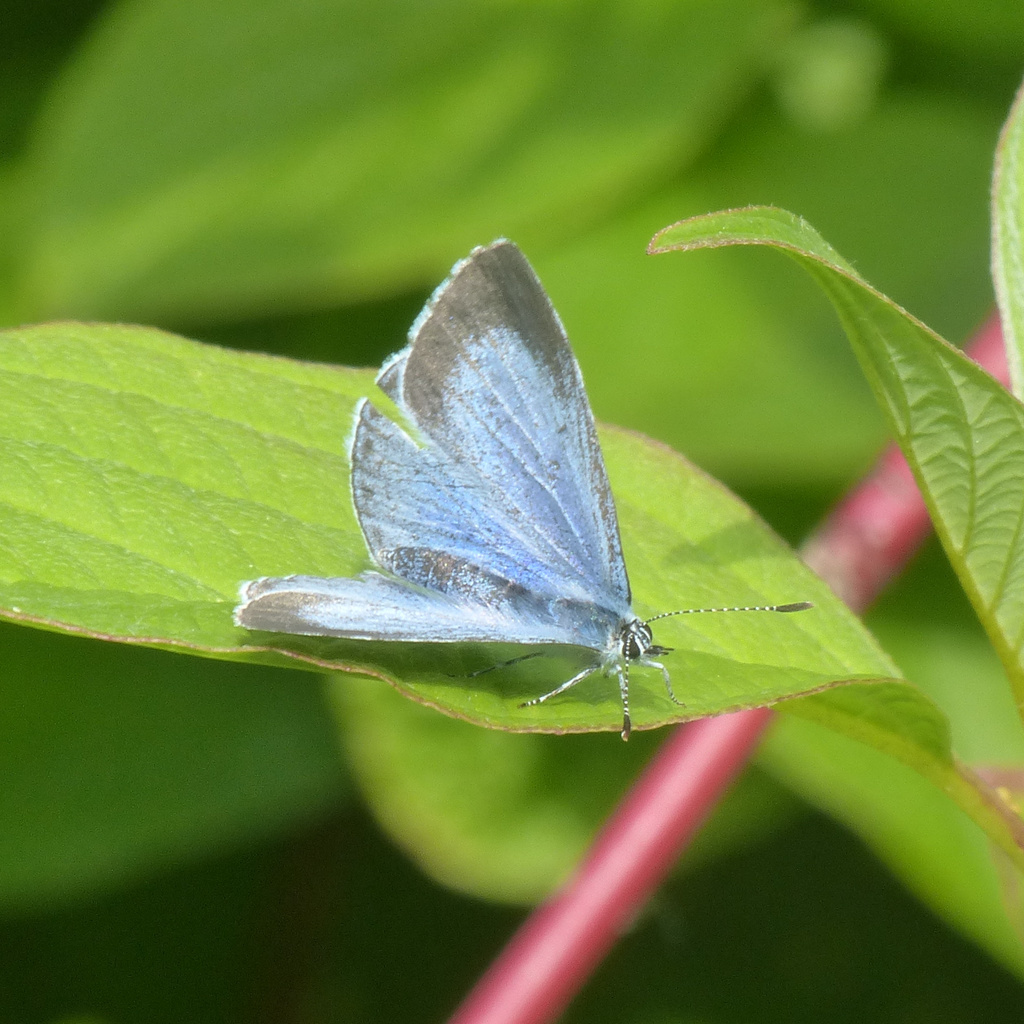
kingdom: Animalia
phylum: Arthropoda
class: Insecta
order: Lepidoptera
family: Lycaenidae
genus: Celastrina
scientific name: Celastrina argiolus
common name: Holly blue
